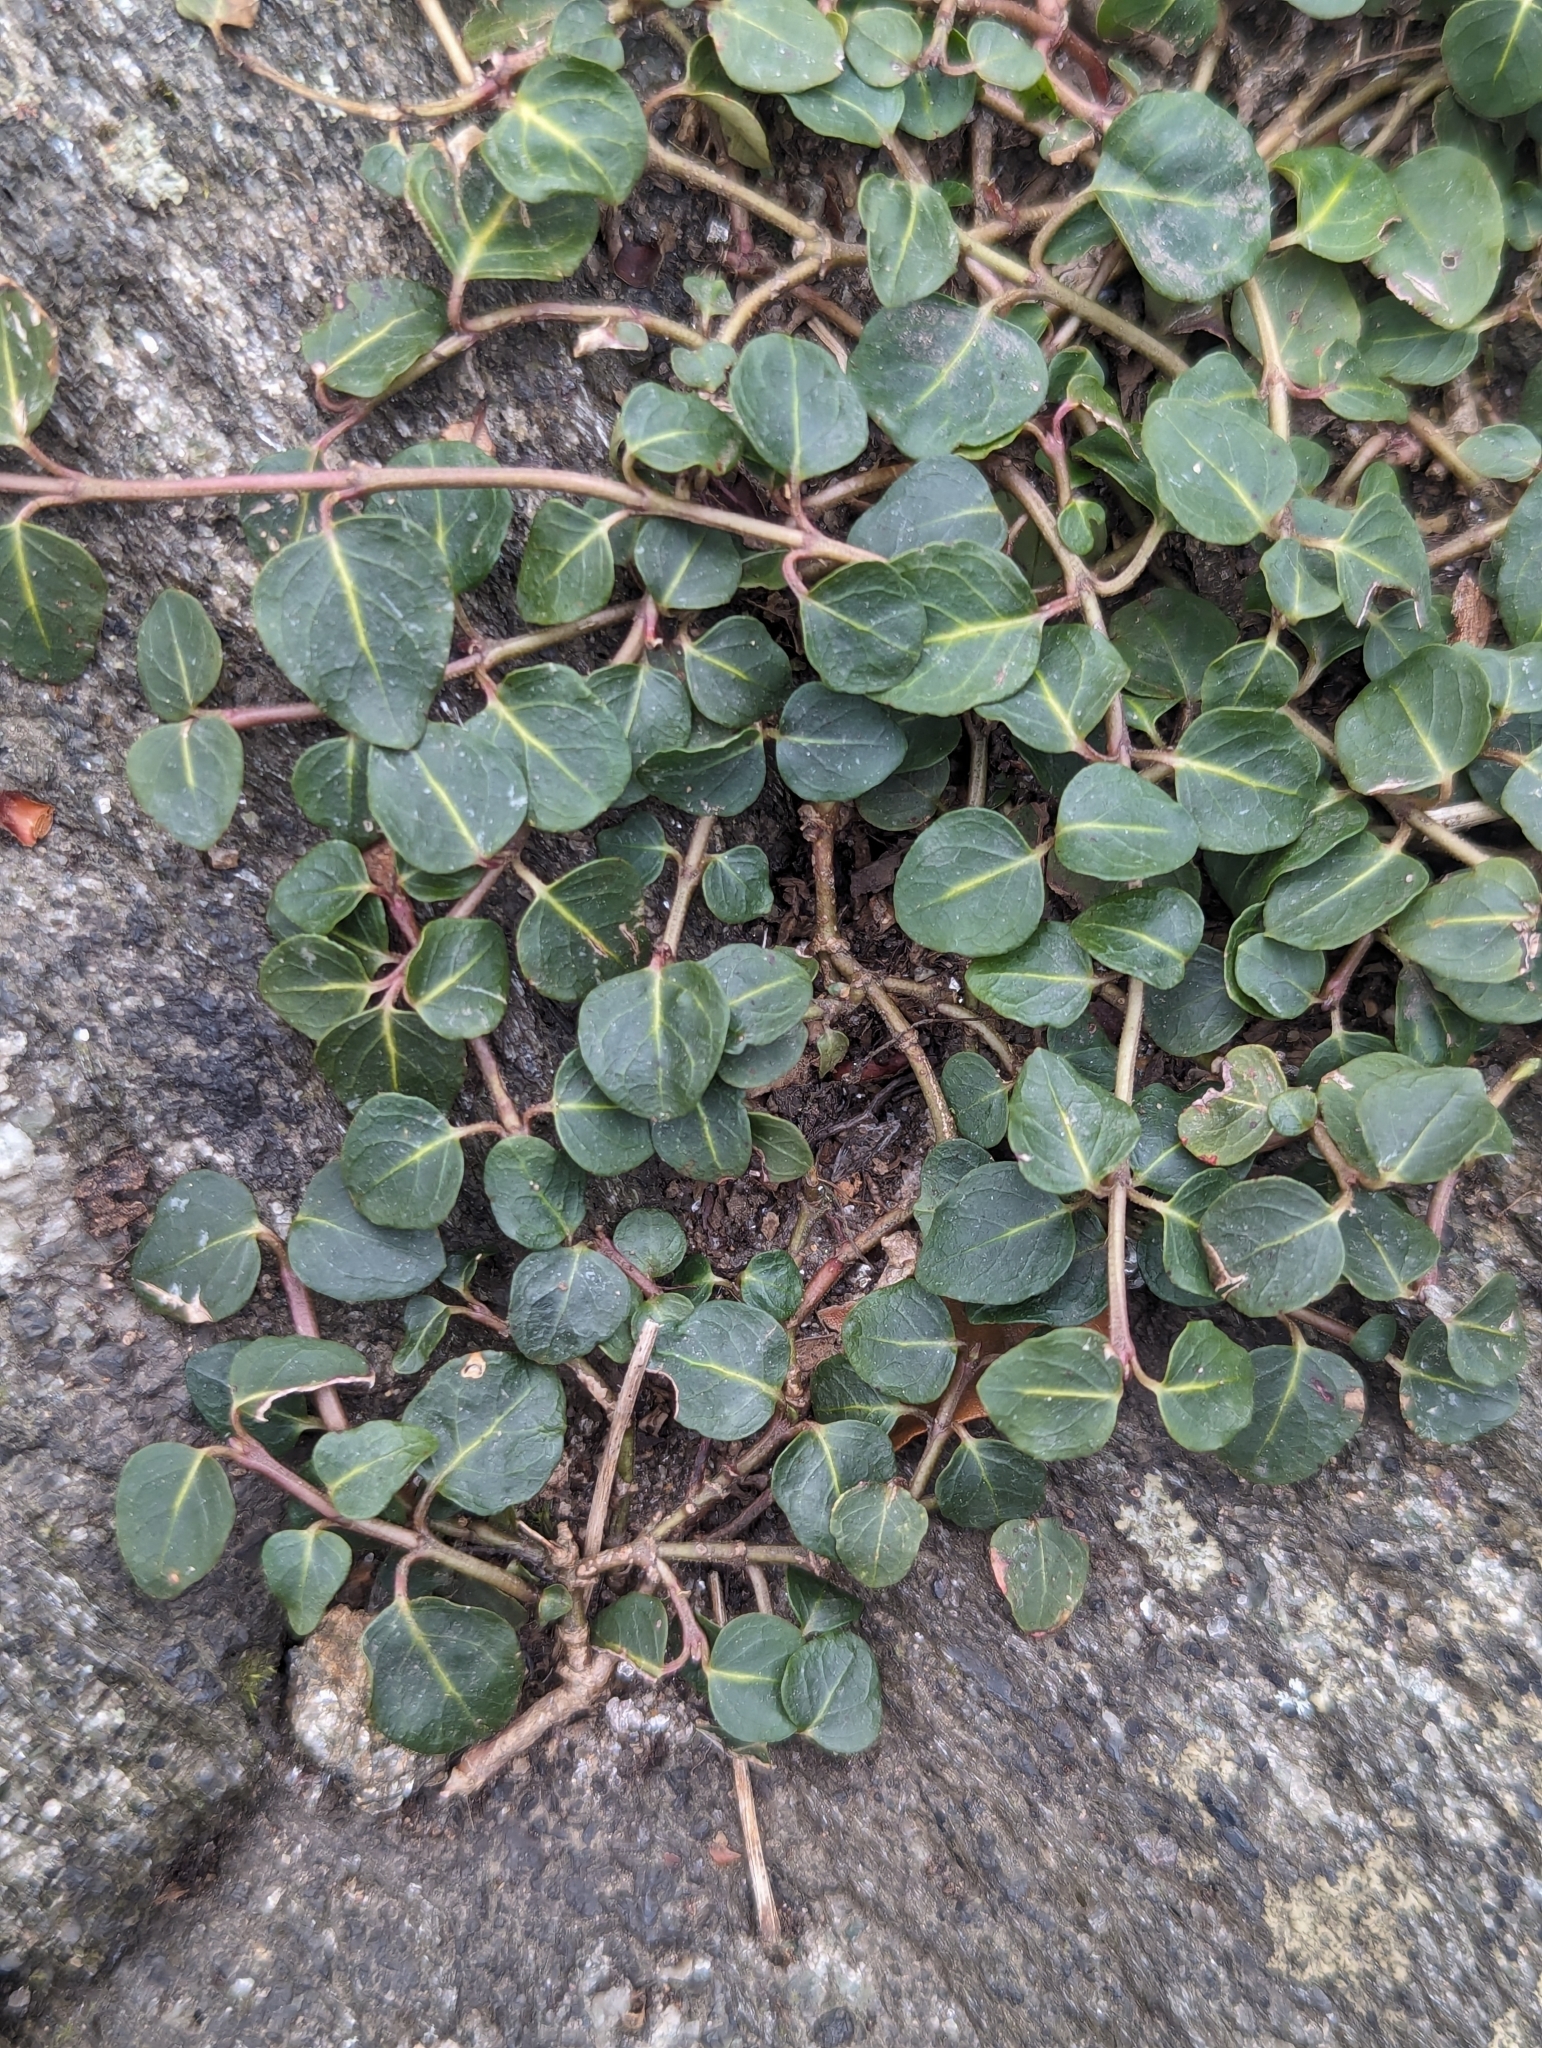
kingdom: Plantae
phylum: Tracheophyta
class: Magnoliopsida
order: Gentianales
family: Rubiaceae
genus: Mitchella
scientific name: Mitchella repens
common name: Partridge-berry
